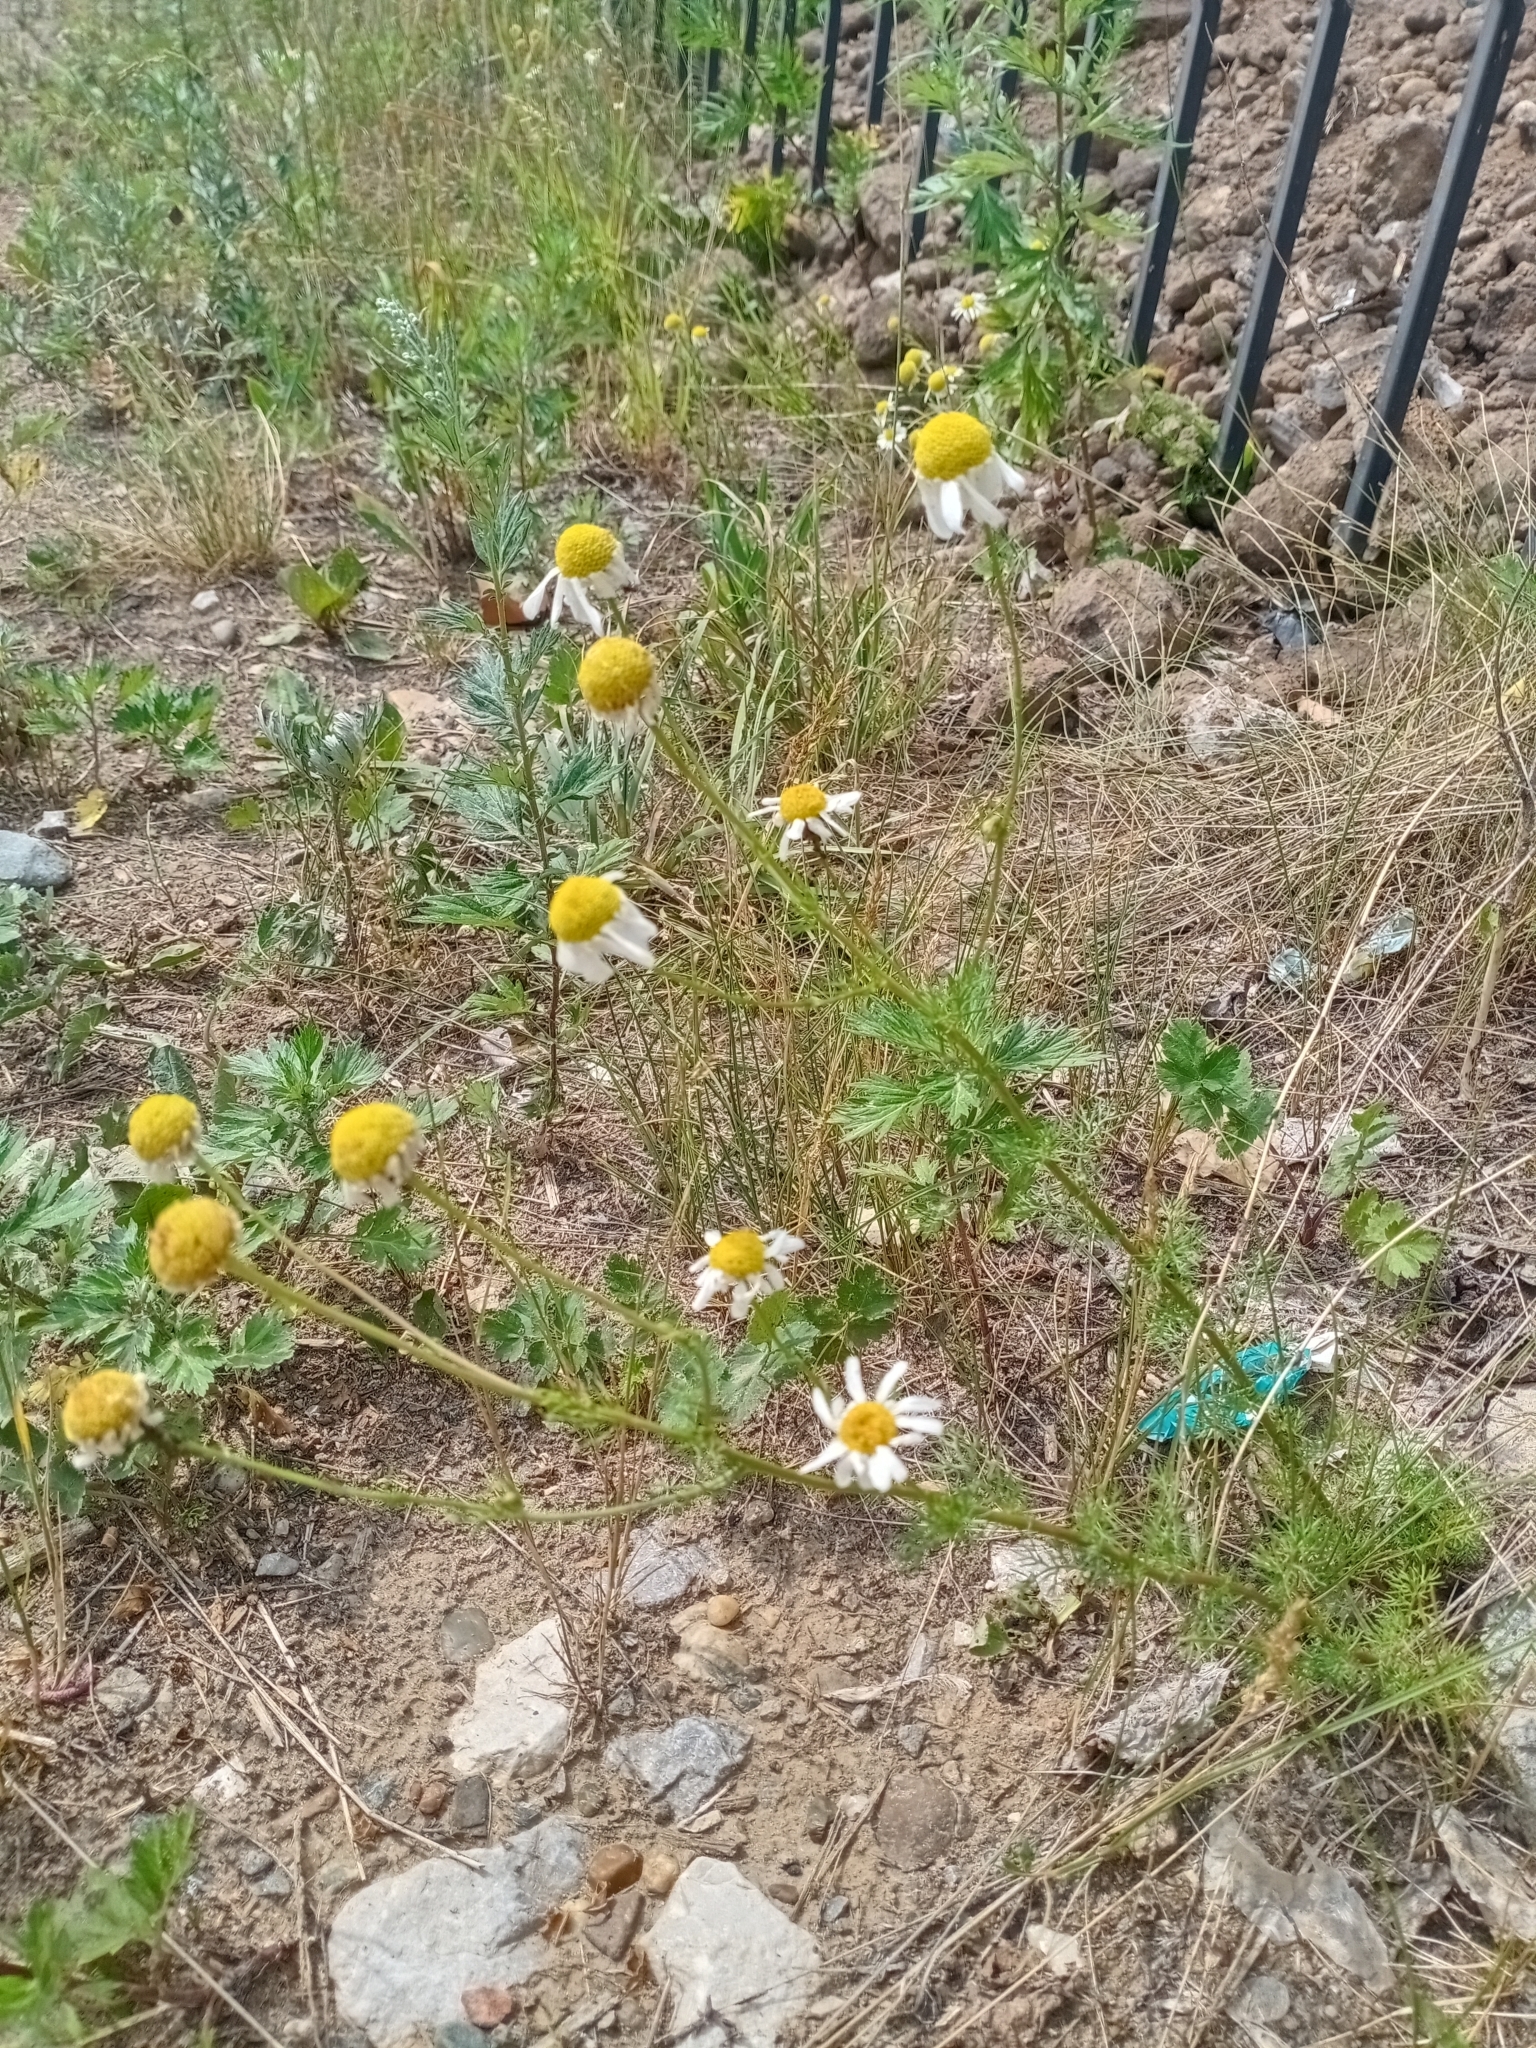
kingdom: Plantae
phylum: Tracheophyta
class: Magnoliopsida
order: Asterales
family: Asteraceae
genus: Tripleurospermum
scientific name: Tripleurospermum inodorum
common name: Scentless mayweed
